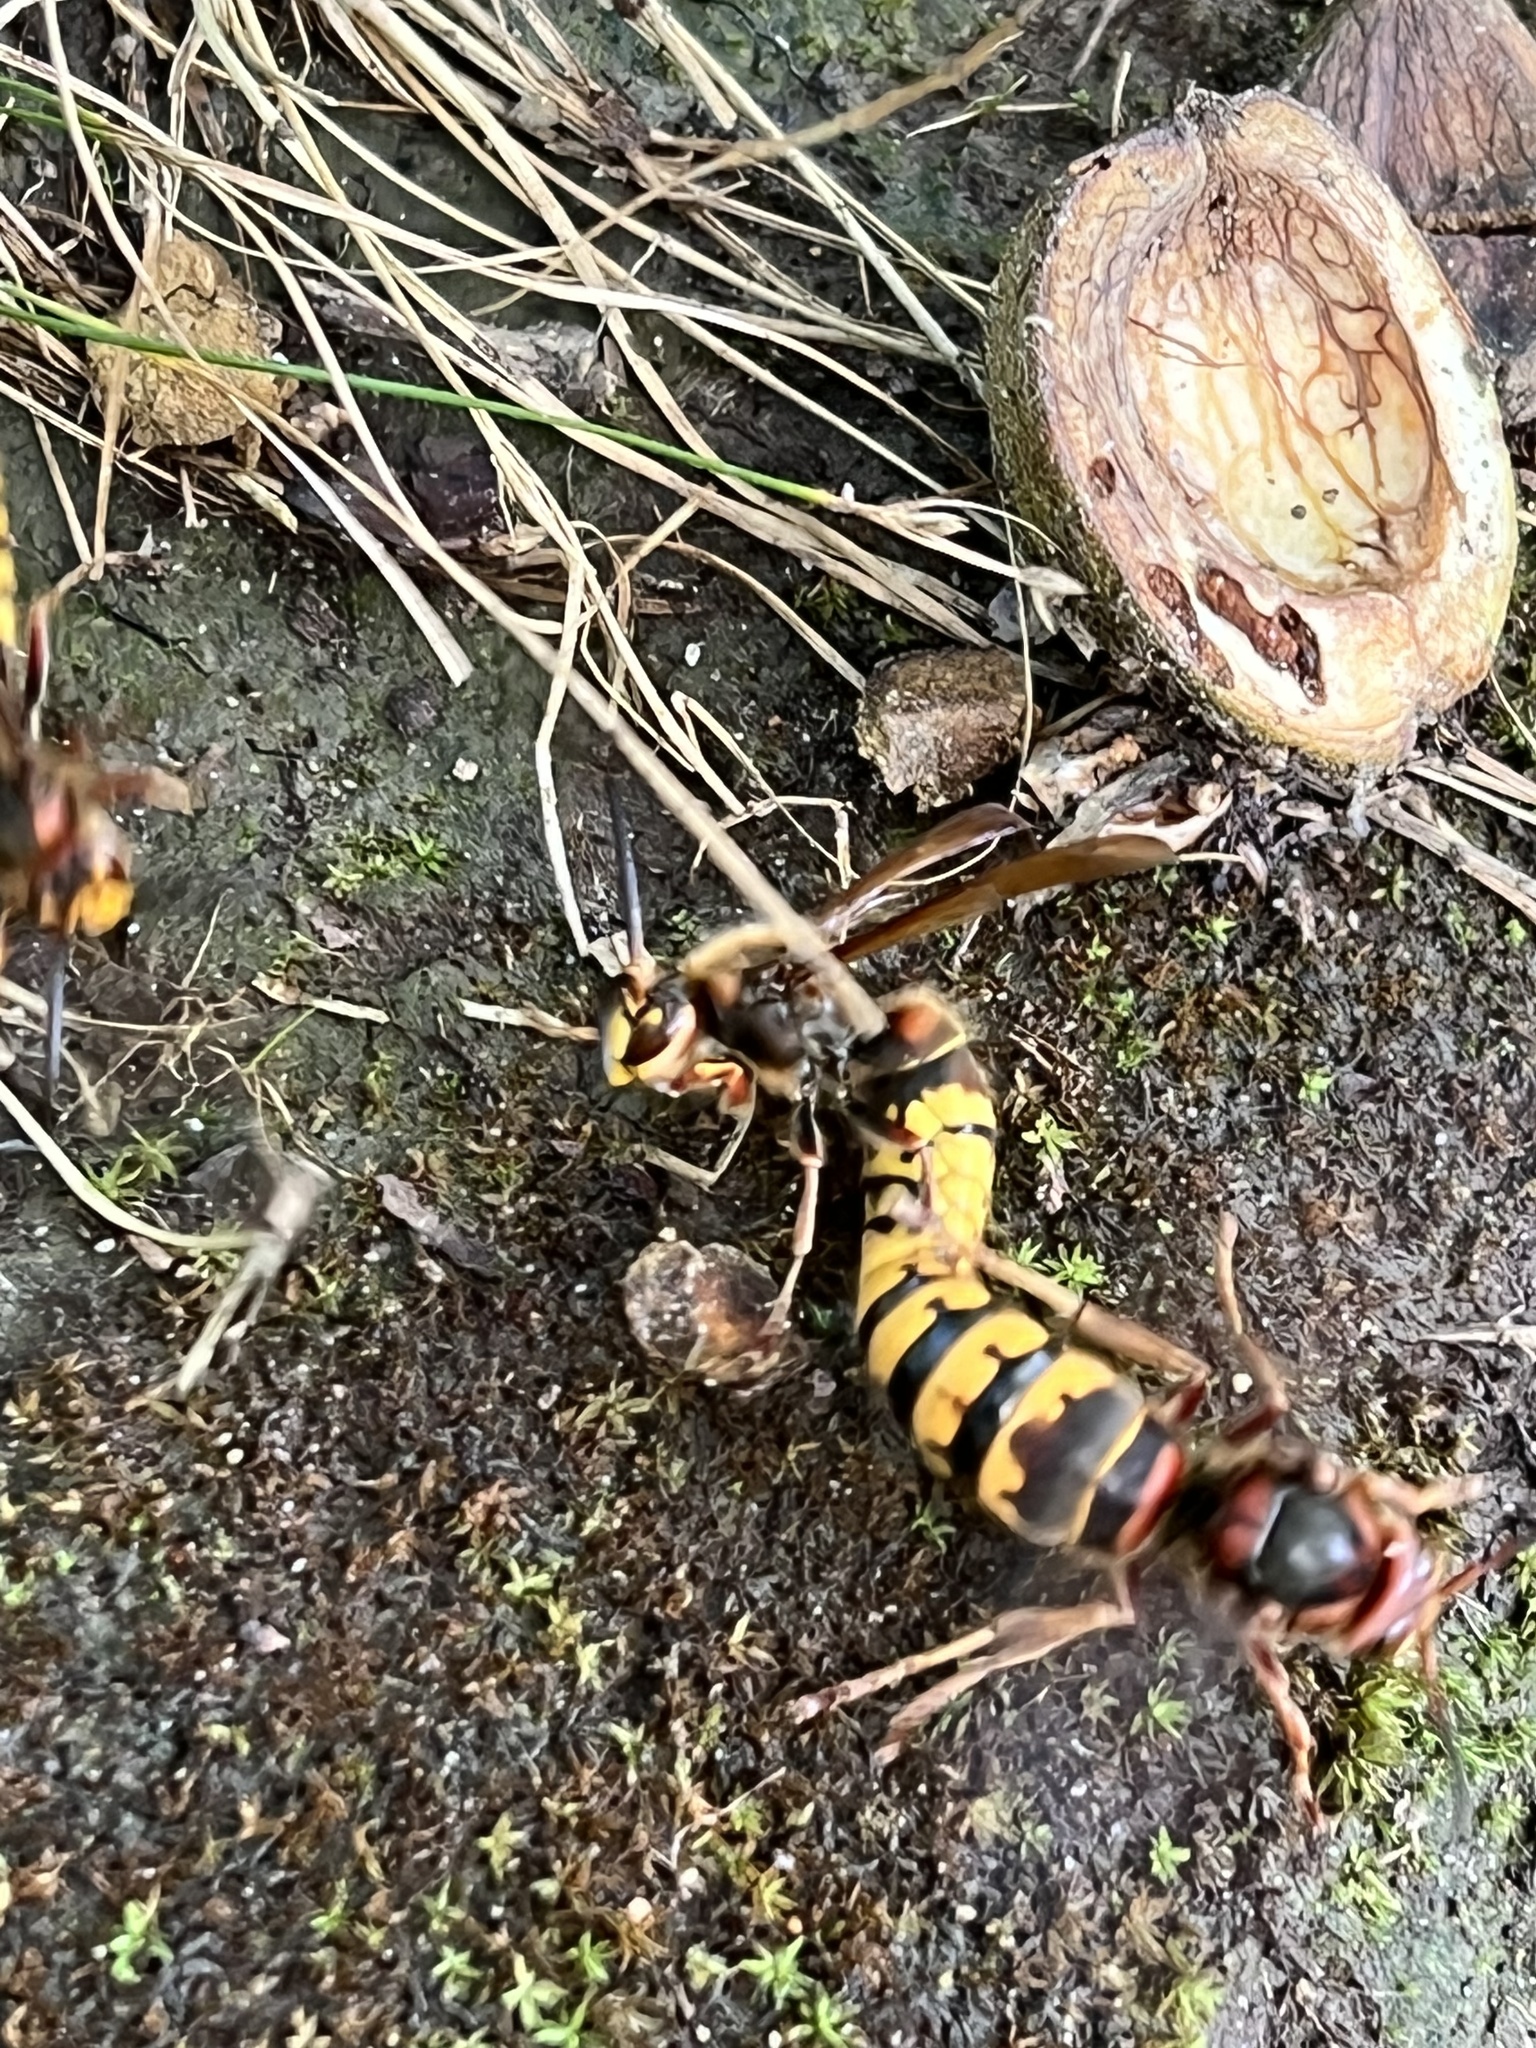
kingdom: Animalia
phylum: Arthropoda
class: Insecta
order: Hymenoptera
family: Vespidae
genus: Vespa
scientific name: Vespa crabro
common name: Hornet
